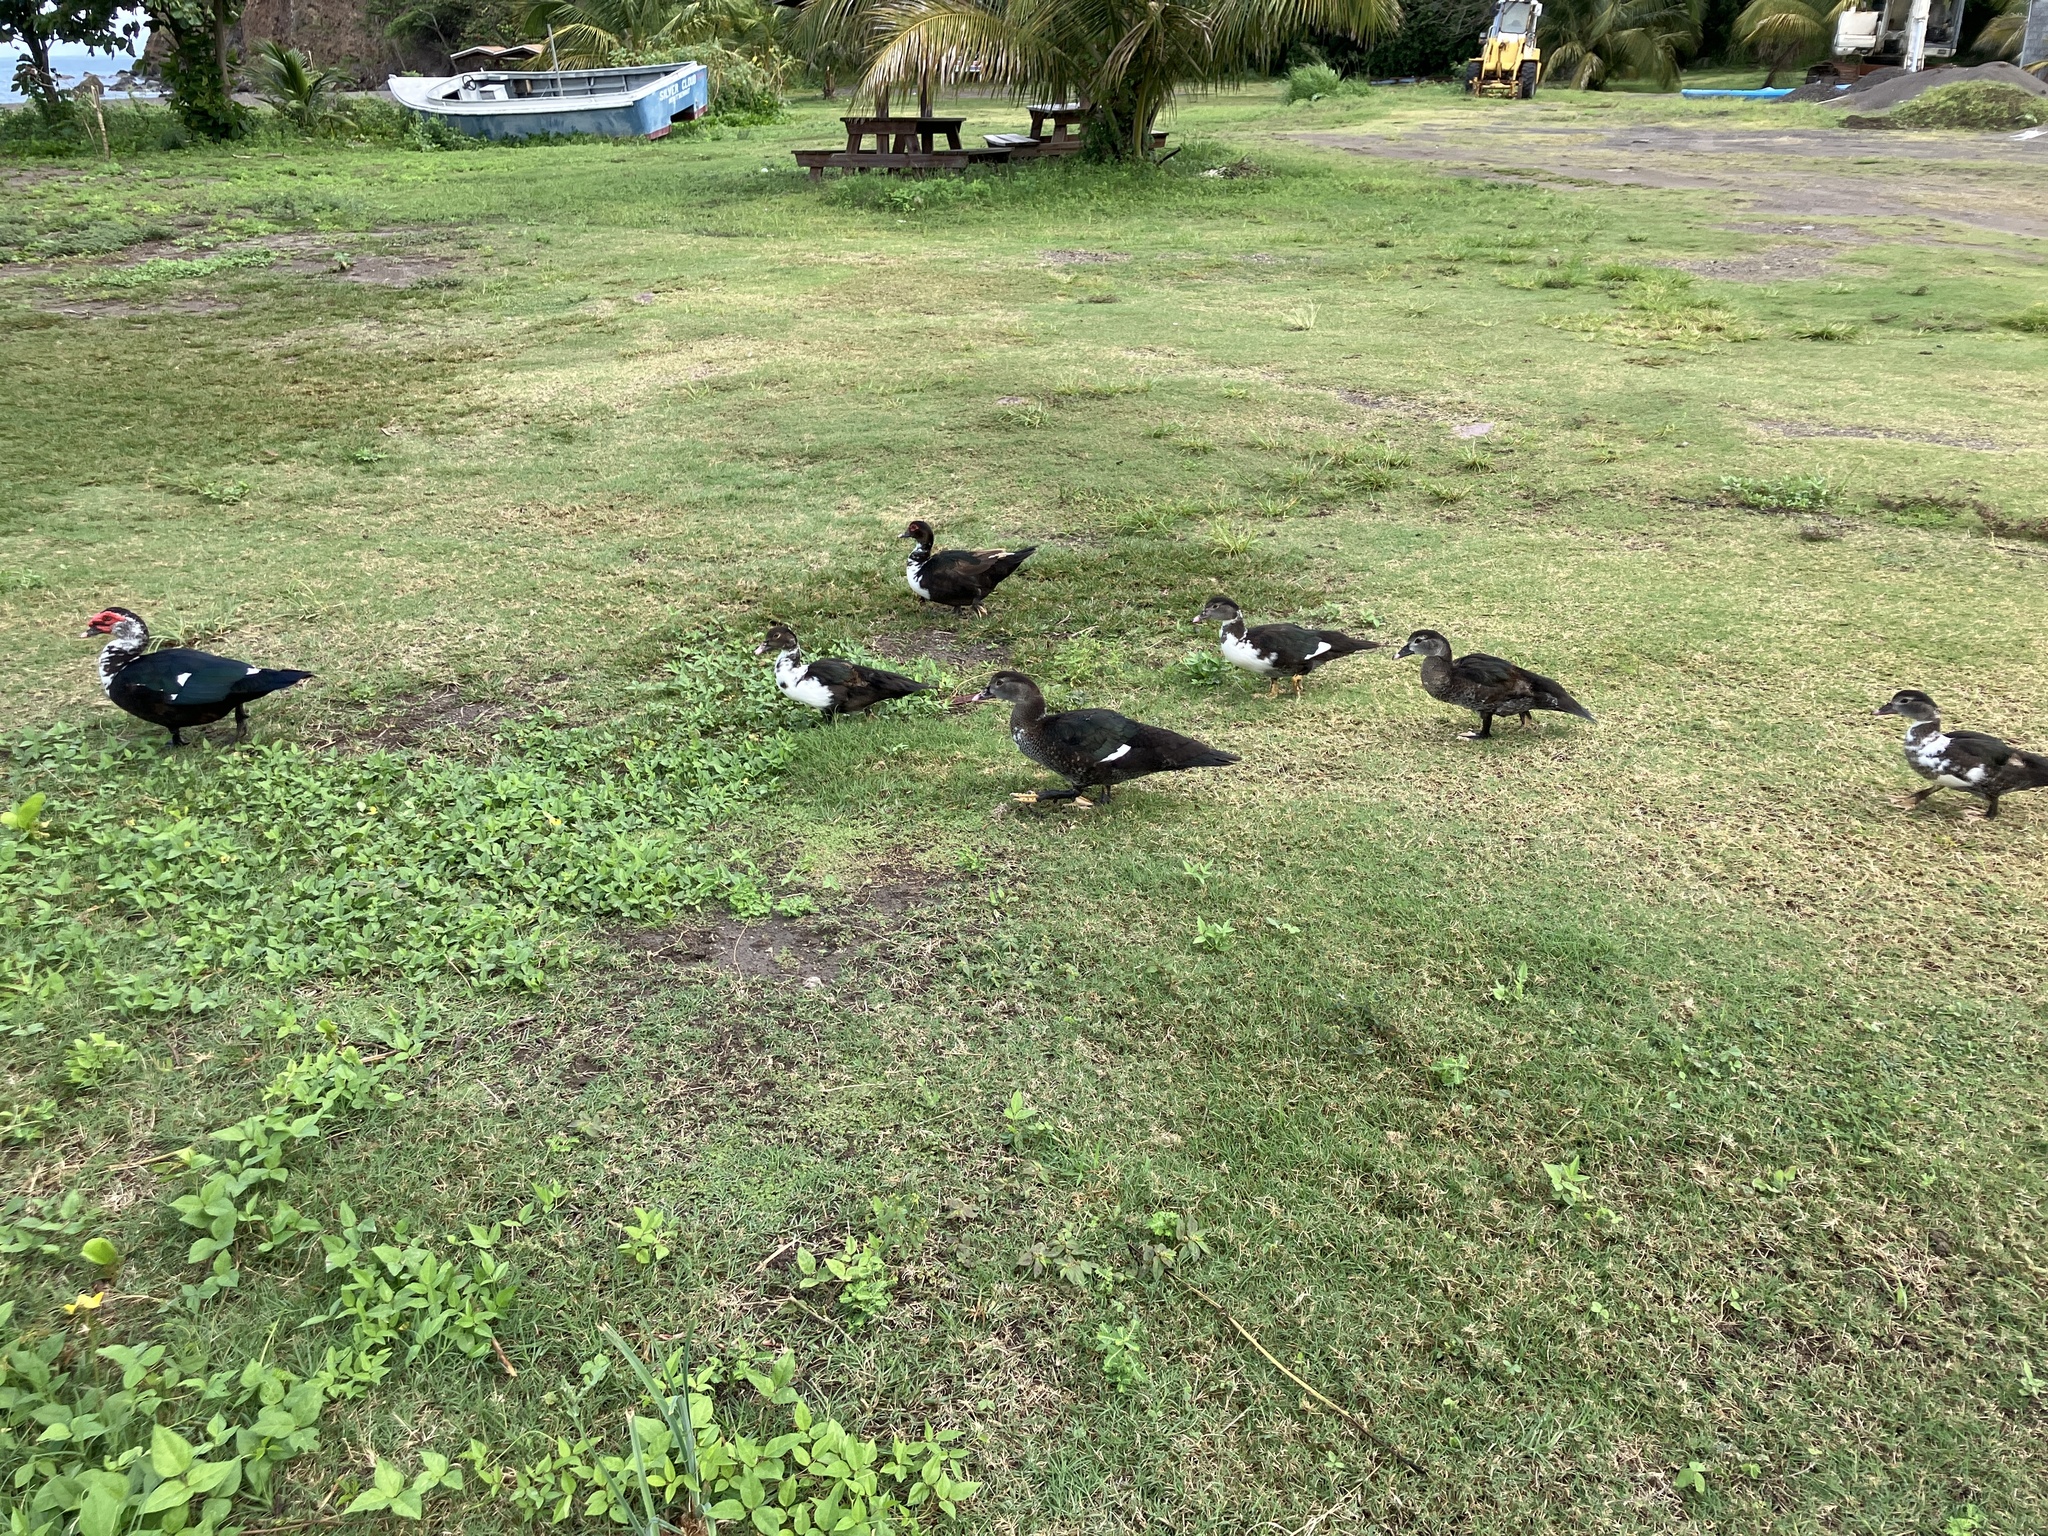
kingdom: Animalia
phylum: Chordata
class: Aves
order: Anseriformes
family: Anatidae
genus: Cairina
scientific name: Cairina moschata
